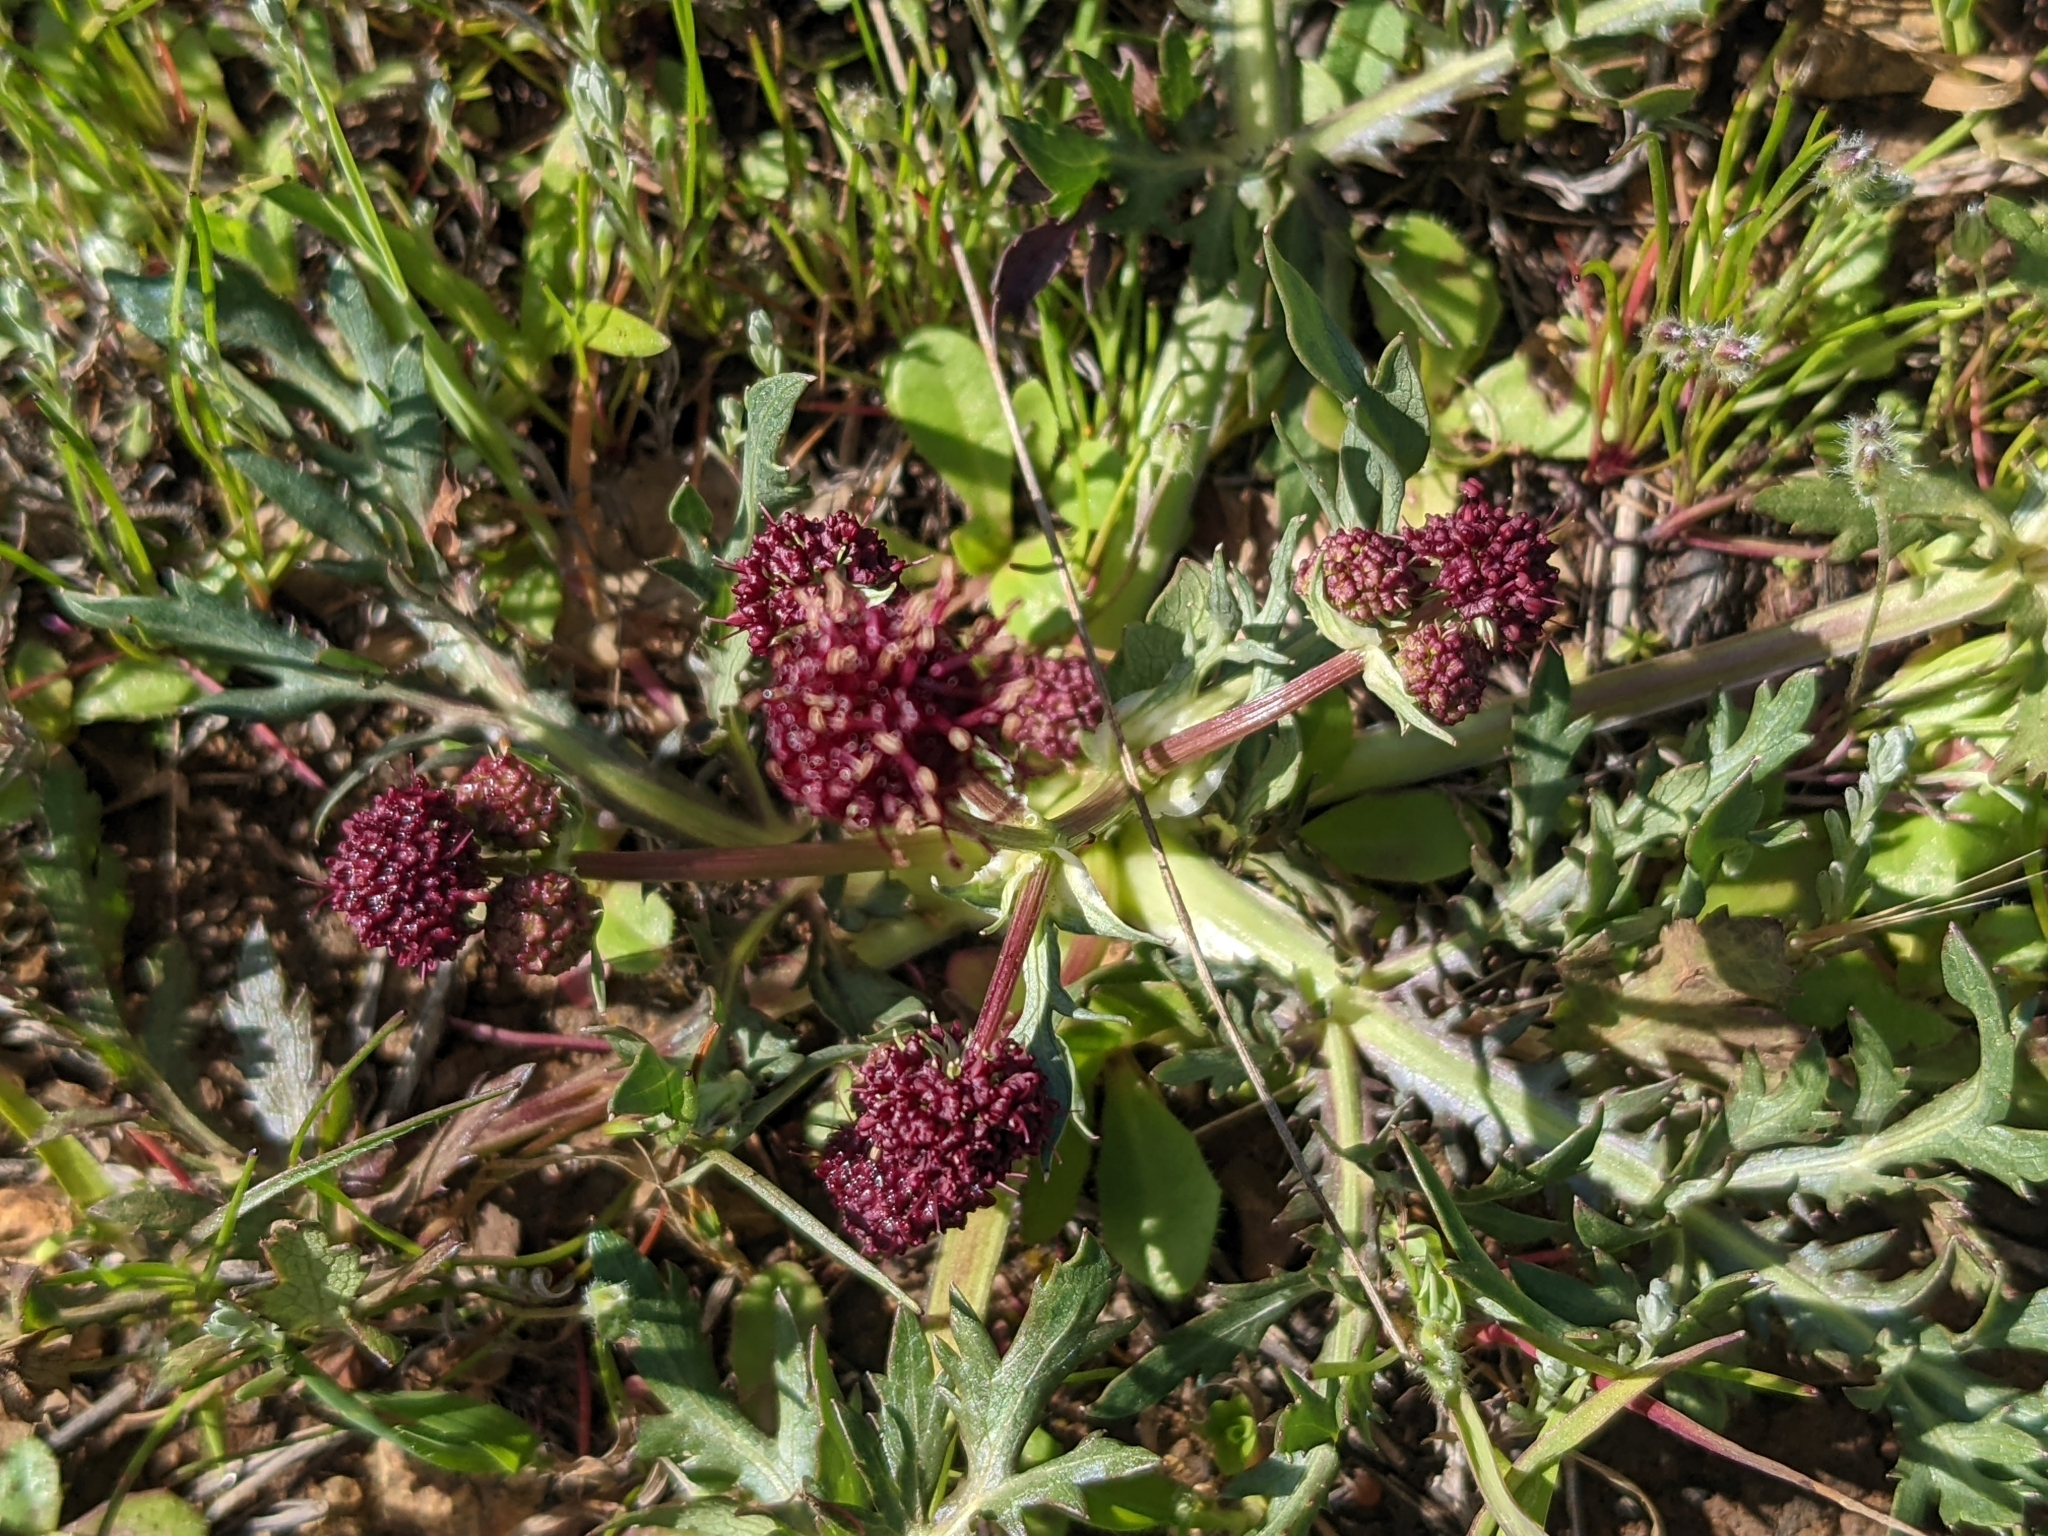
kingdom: Plantae
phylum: Tracheophyta
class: Magnoliopsida
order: Apiales
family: Apiaceae
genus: Sanicula
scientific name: Sanicula bipinnatifida
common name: Shoe-buttons
